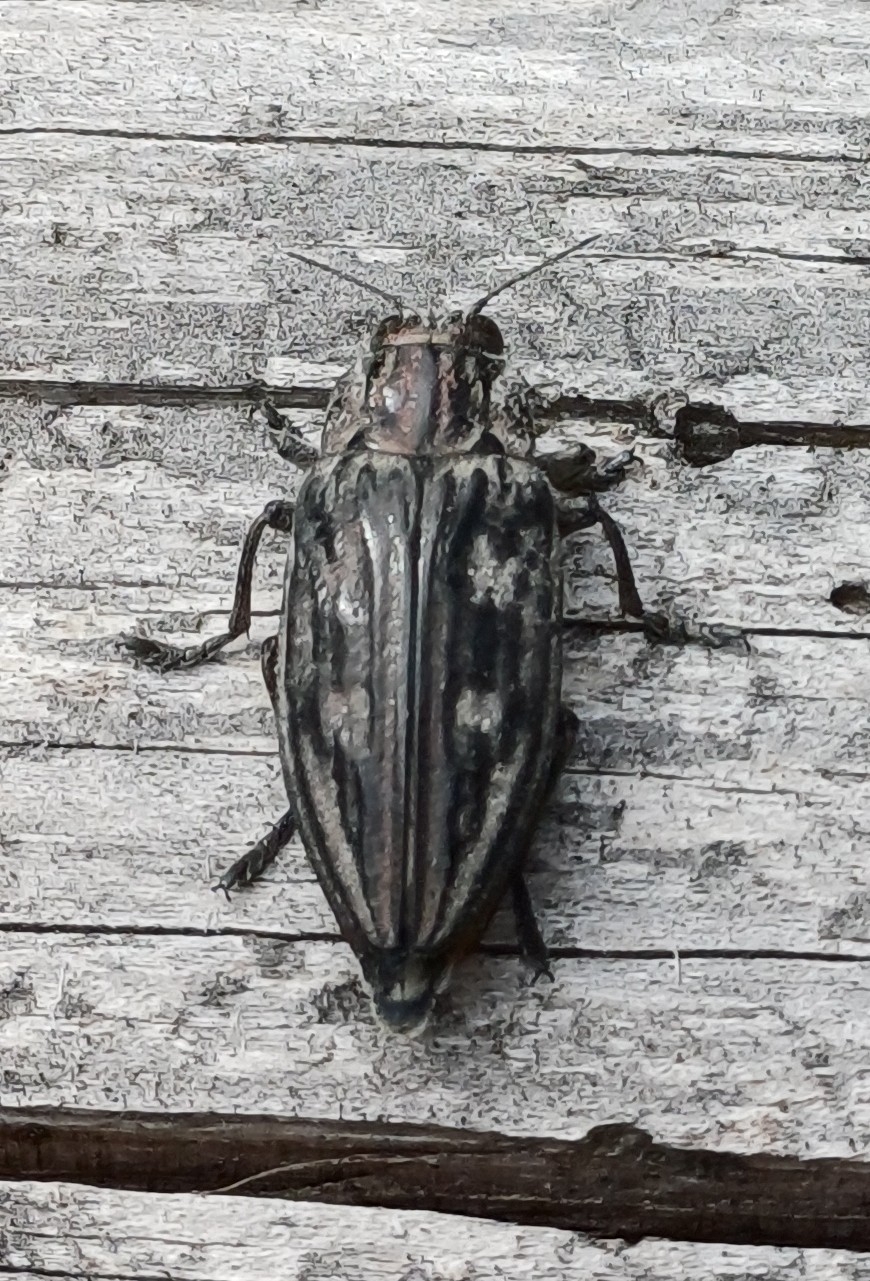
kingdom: Animalia
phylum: Arthropoda
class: Insecta
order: Coleoptera
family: Buprestidae
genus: Chalcophora
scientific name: Chalcophora mariana
